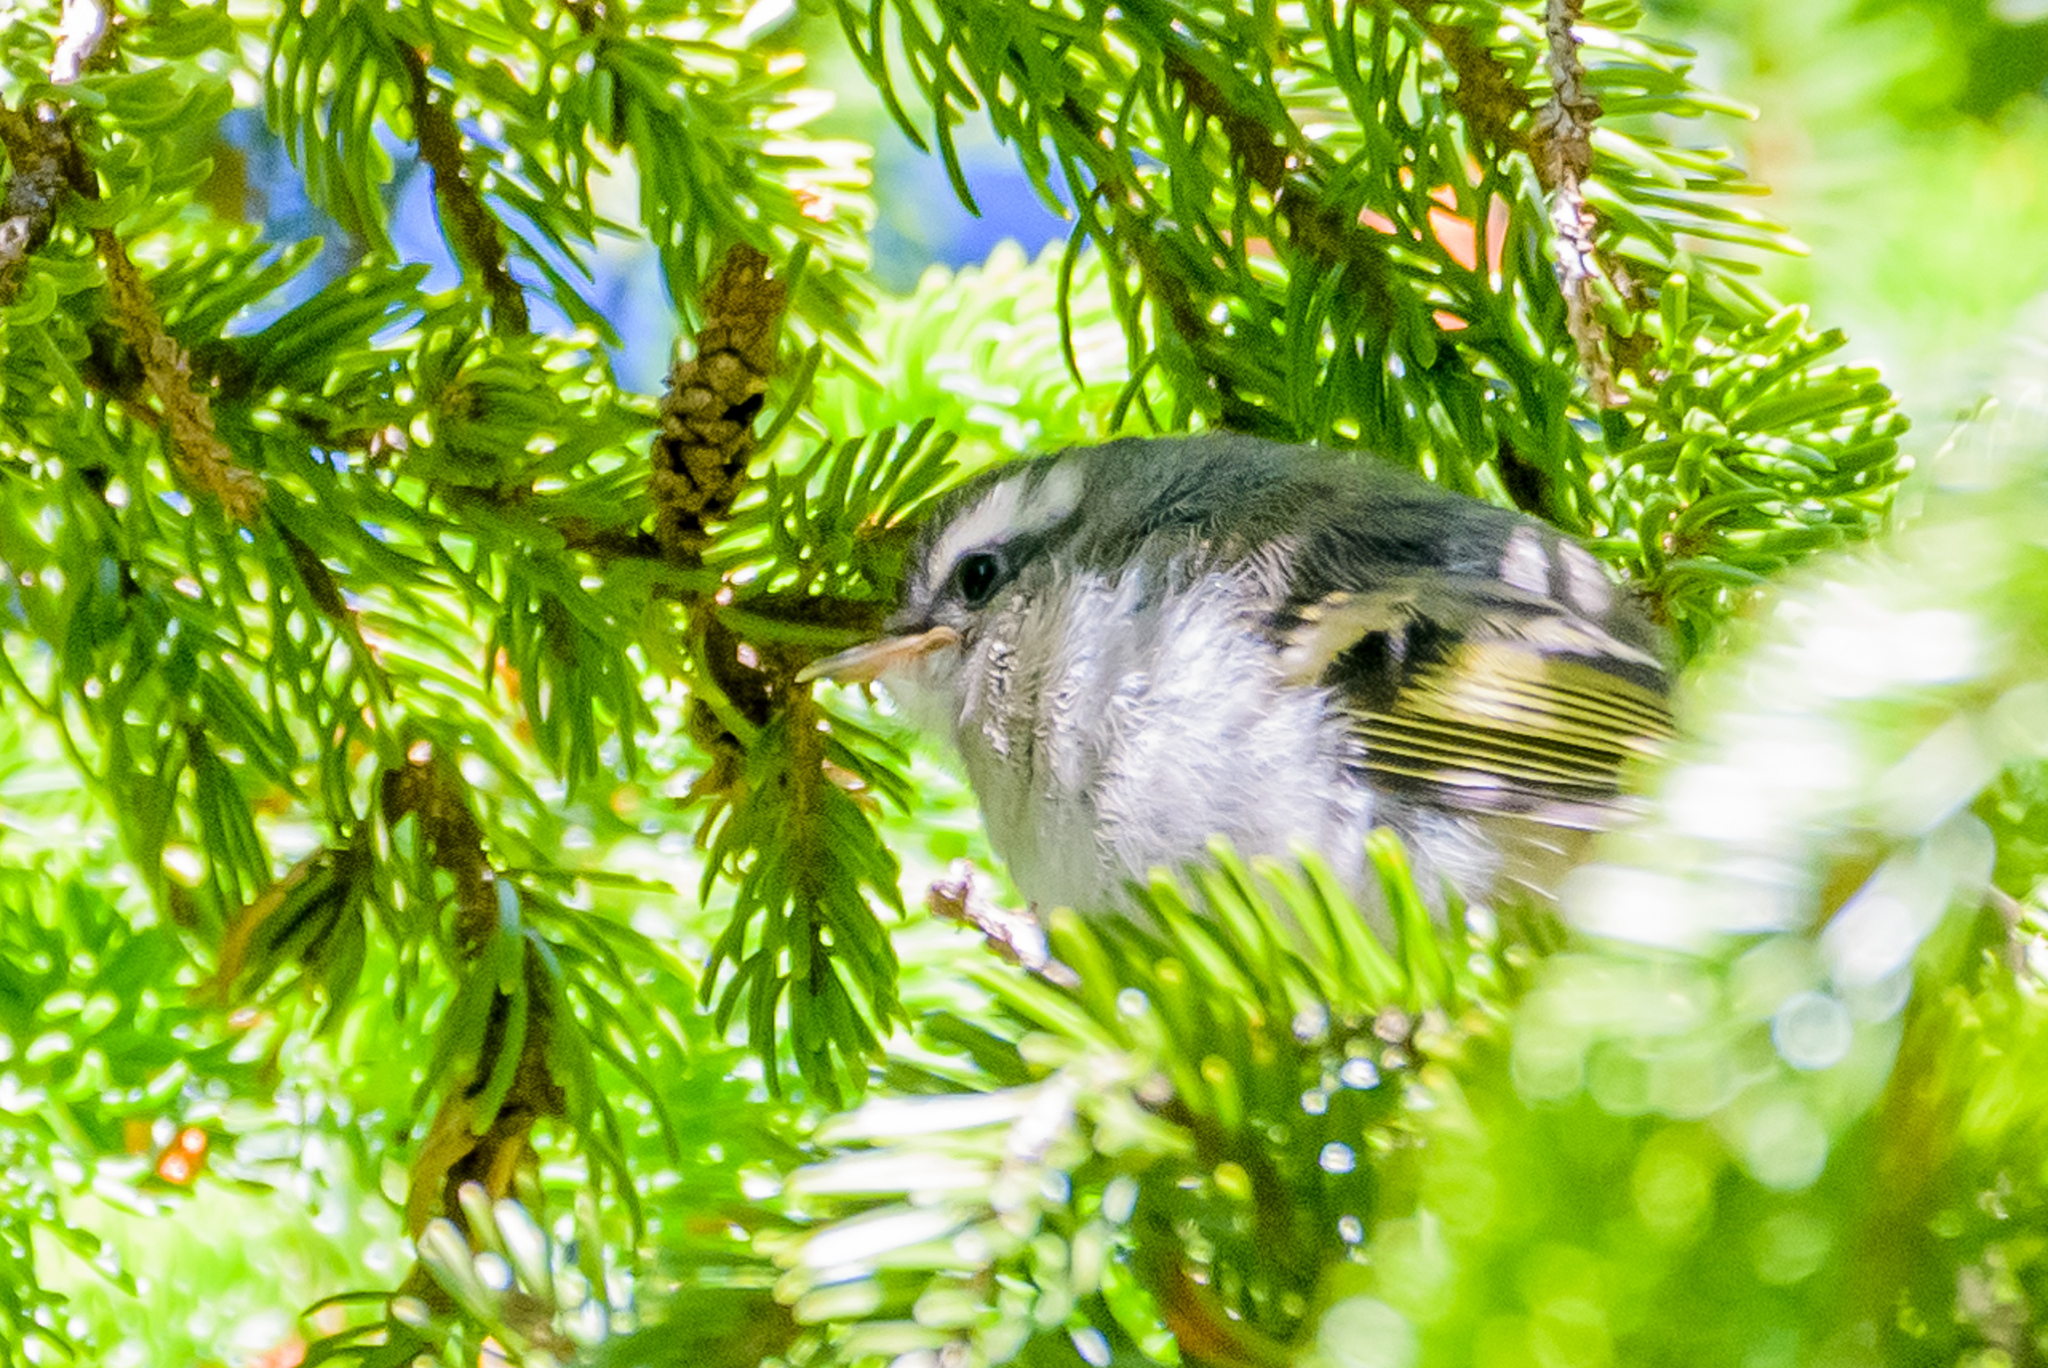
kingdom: Animalia
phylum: Chordata
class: Aves
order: Passeriformes
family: Regulidae
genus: Regulus
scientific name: Regulus satrapa
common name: Golden-crowned kinglet
